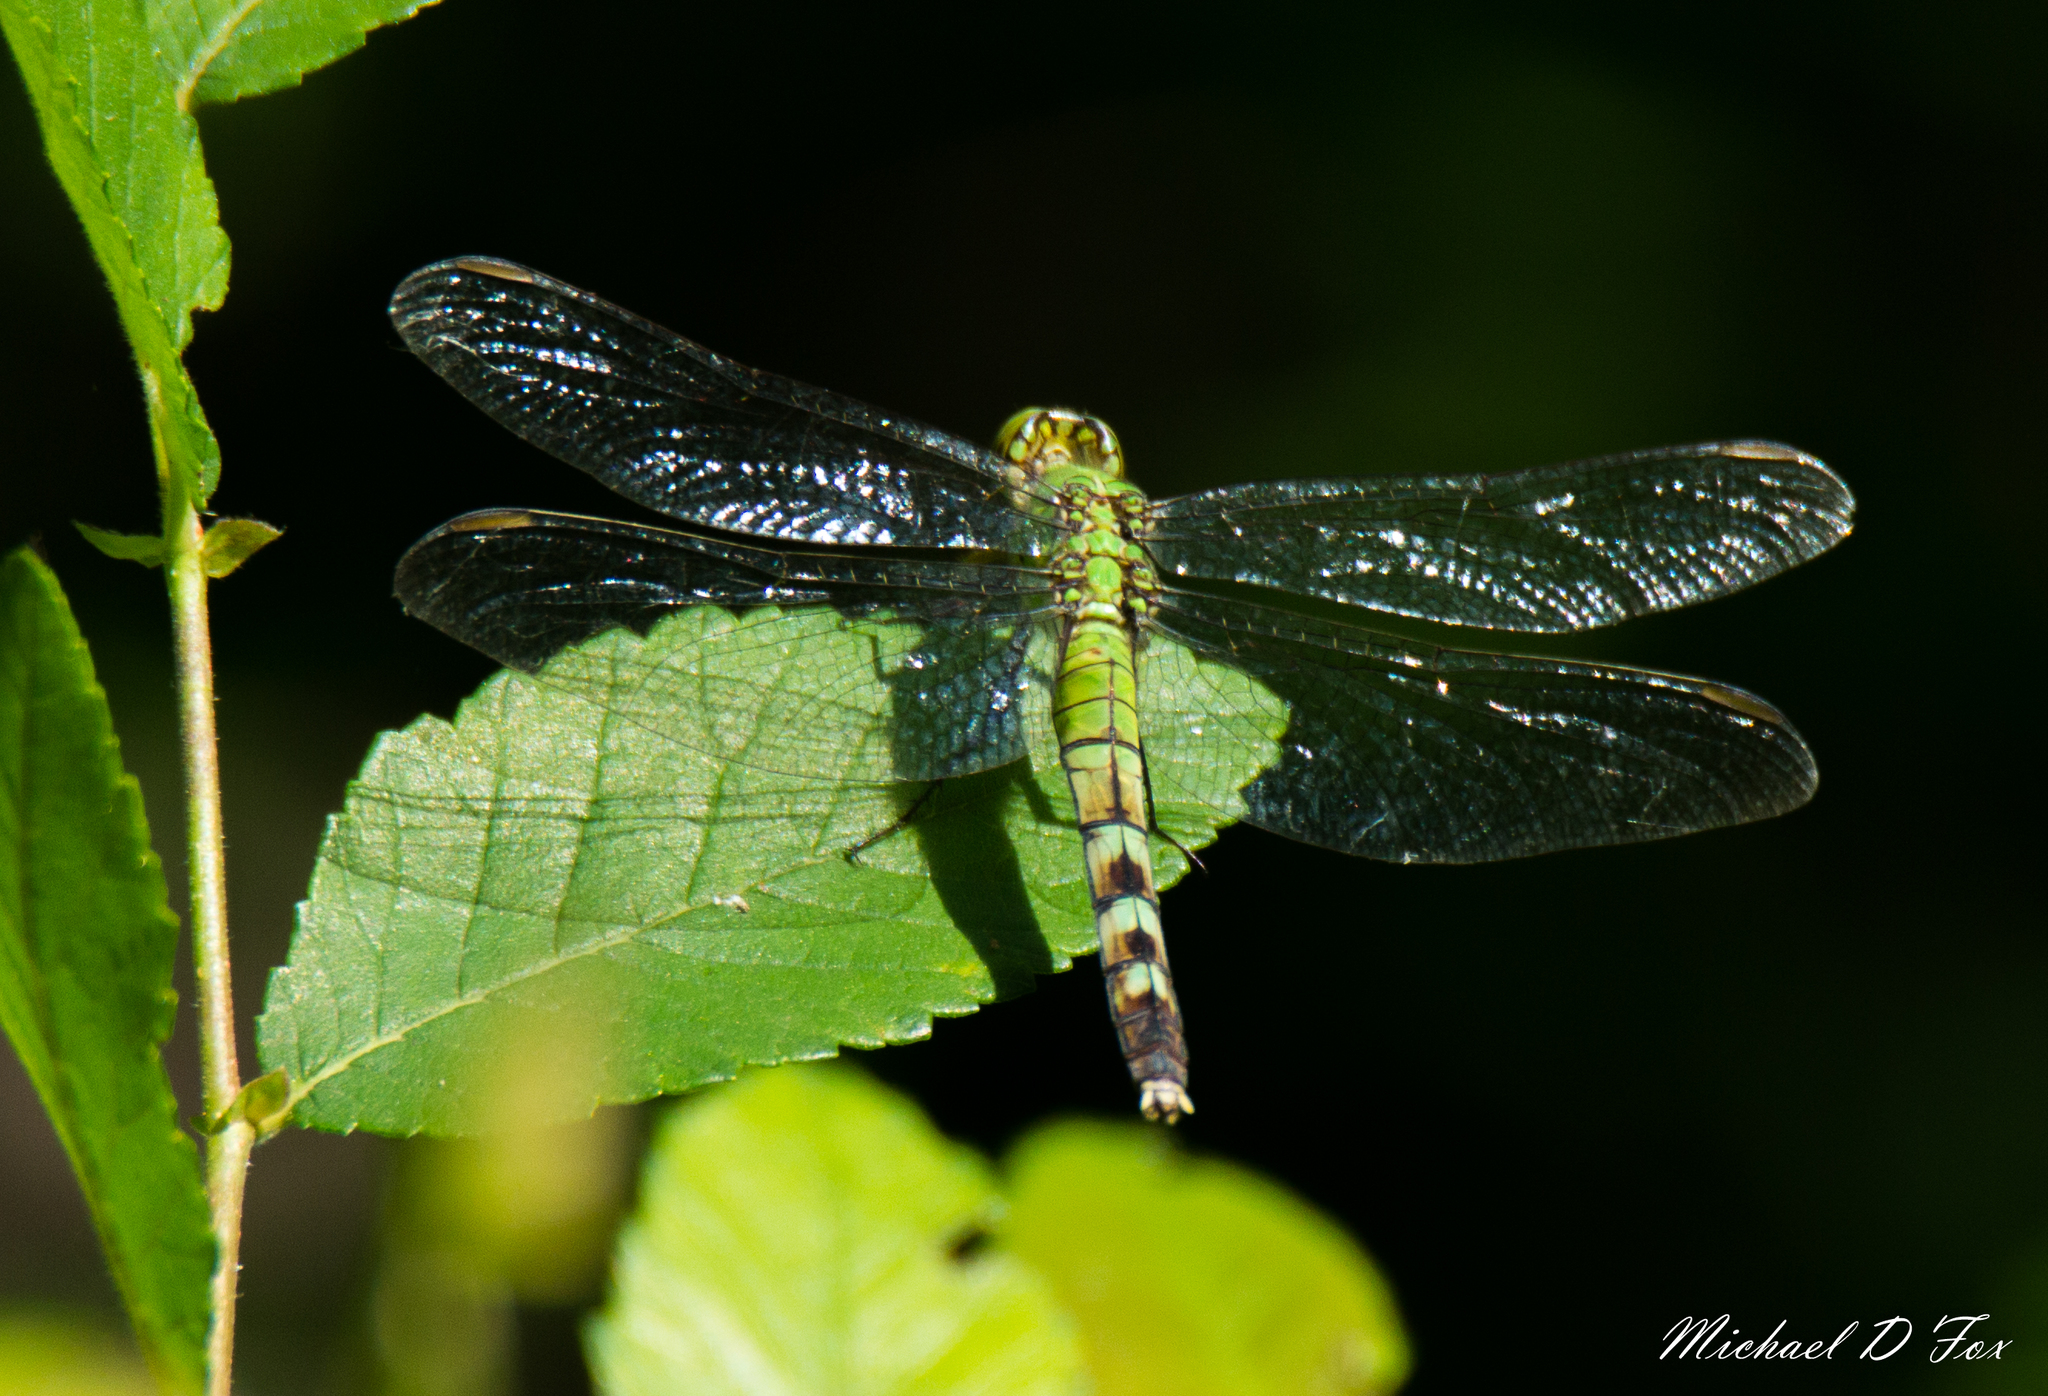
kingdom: Animalia
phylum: Arthropoda
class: Insecta
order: Odonata
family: Libellulidae
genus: Erythemis
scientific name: Erythemis simplicicollis
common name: Eastern pondhawk
